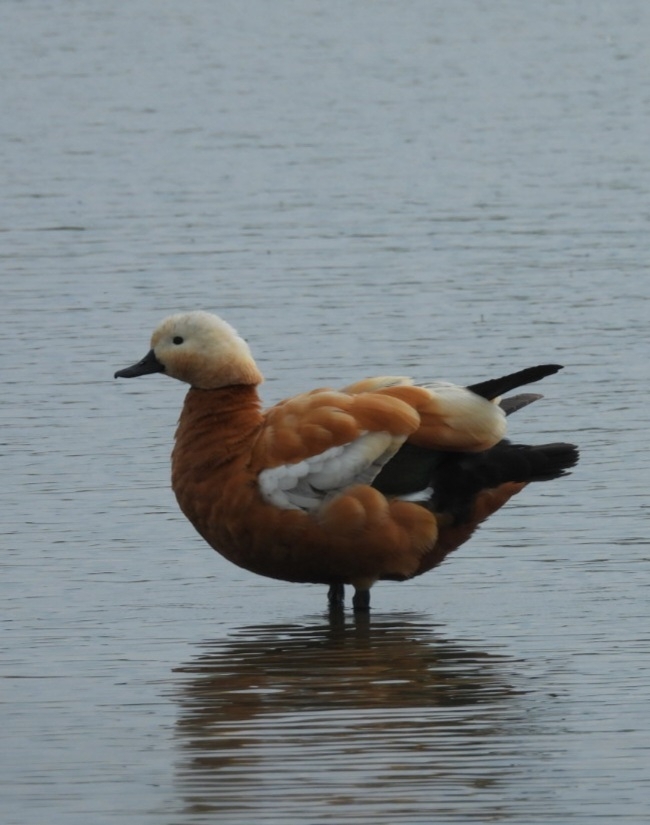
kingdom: Animalia
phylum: Chordata
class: Aves
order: Anseriformes
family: Anatidae
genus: Tadorna
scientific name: Tadorna ferruginea
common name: Ruddy shelduck
